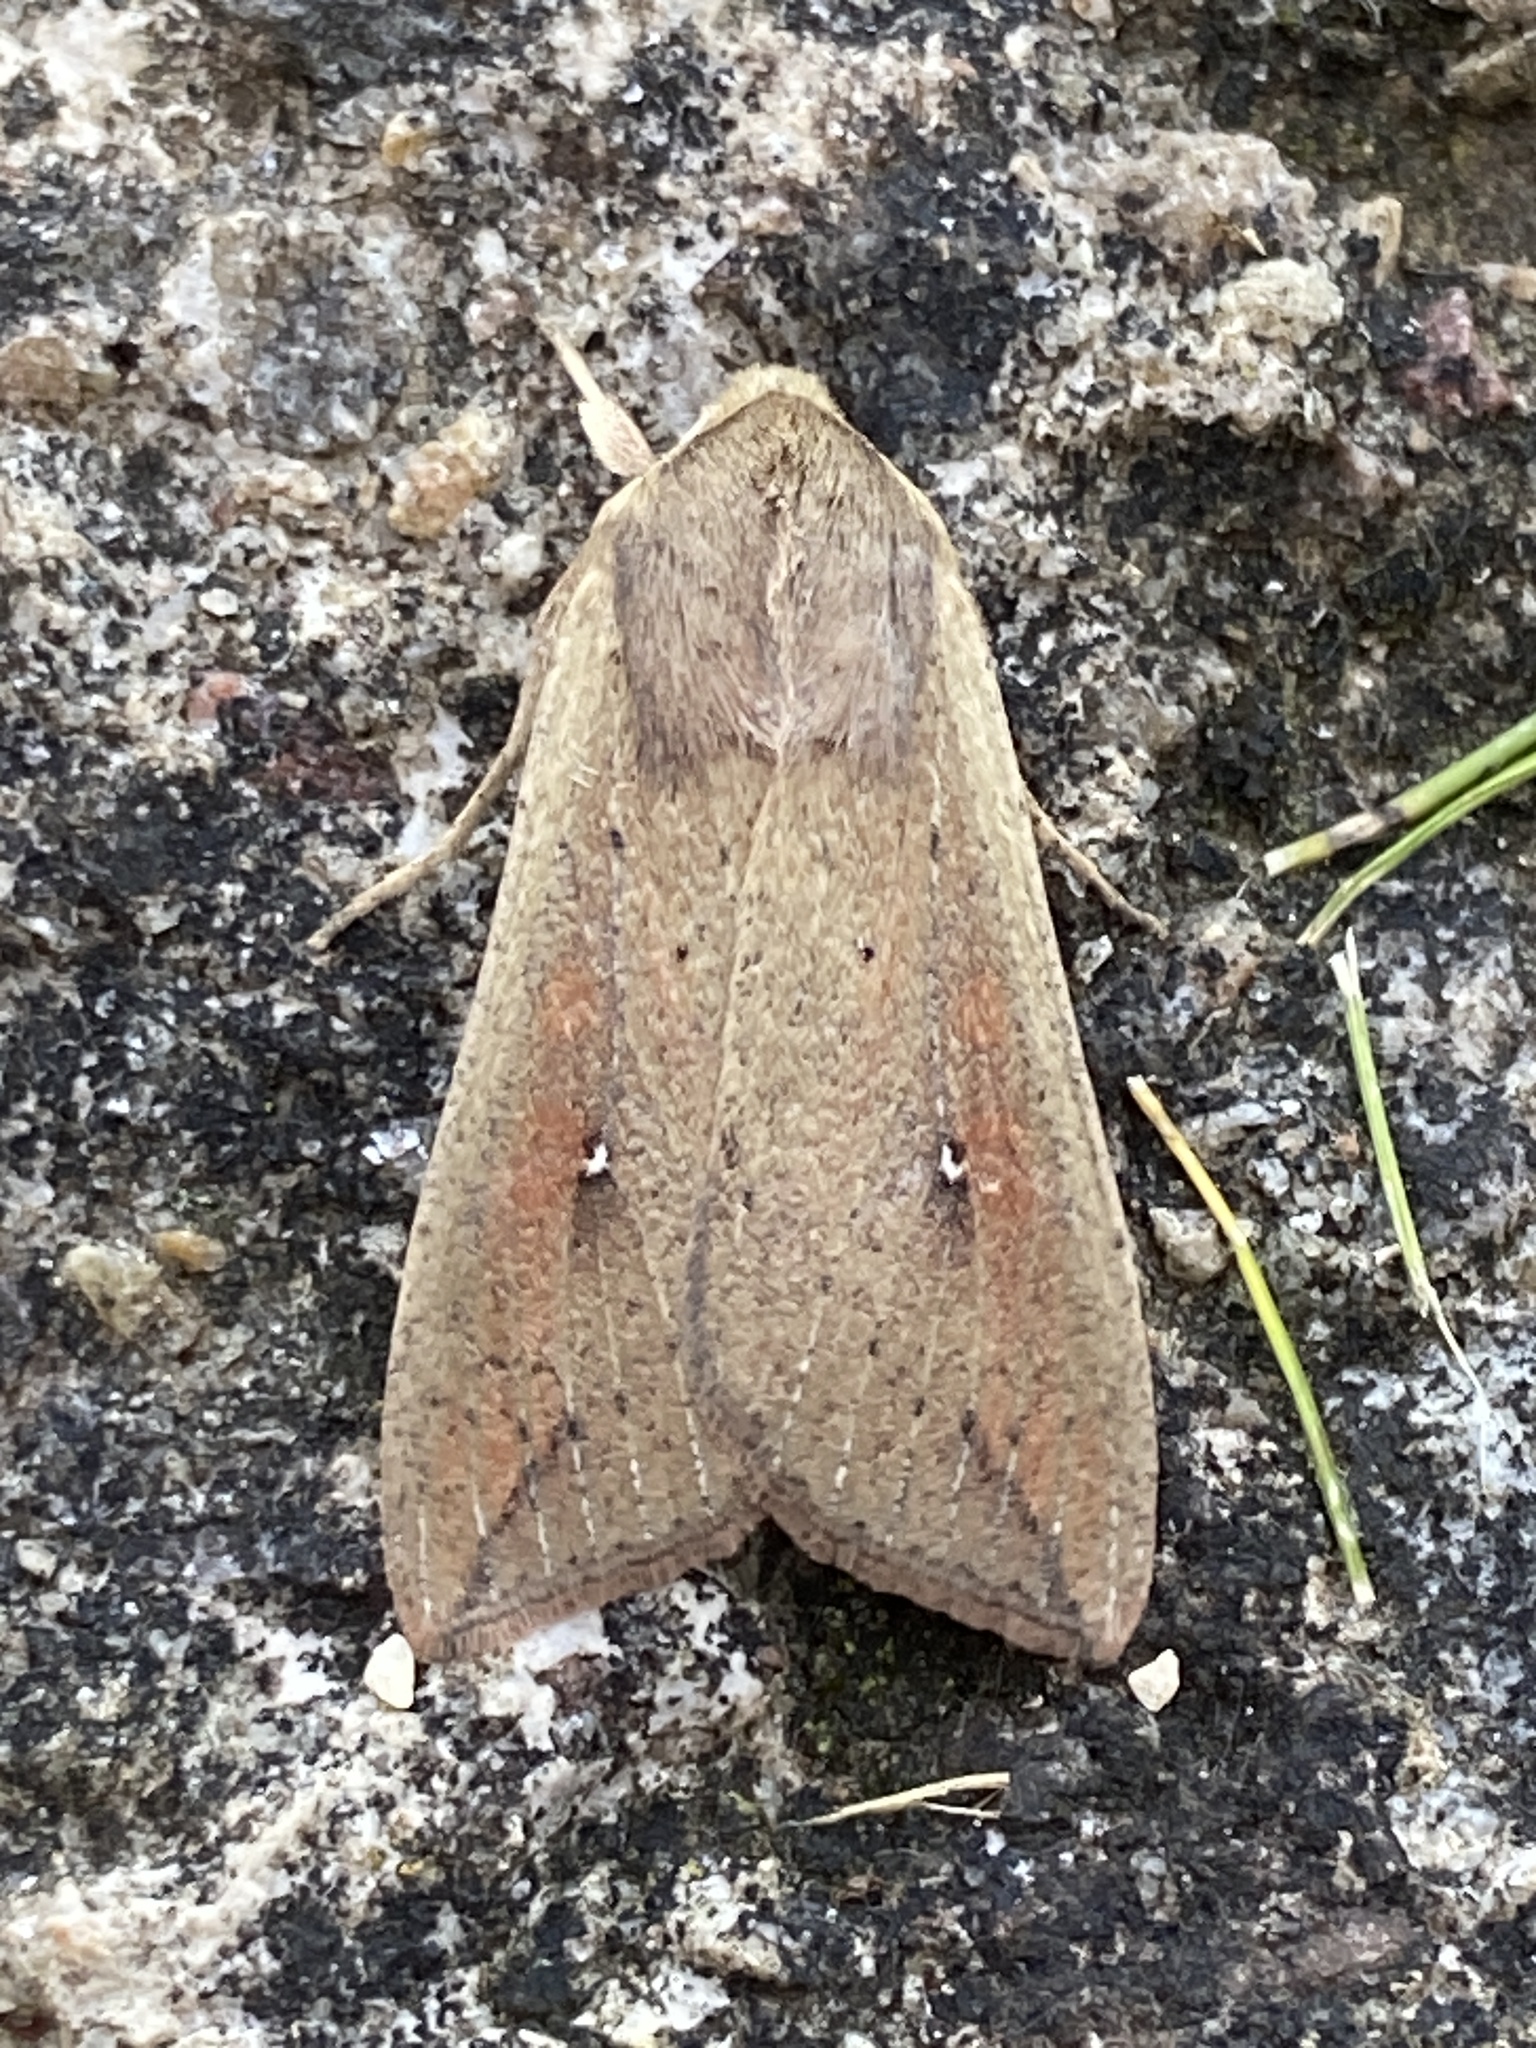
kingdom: Animalia
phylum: Arthropoda
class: Insecta
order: Lepidoptera
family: Noctuidae
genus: Mythimna
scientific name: Mythimna unipuncta
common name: White-speck
